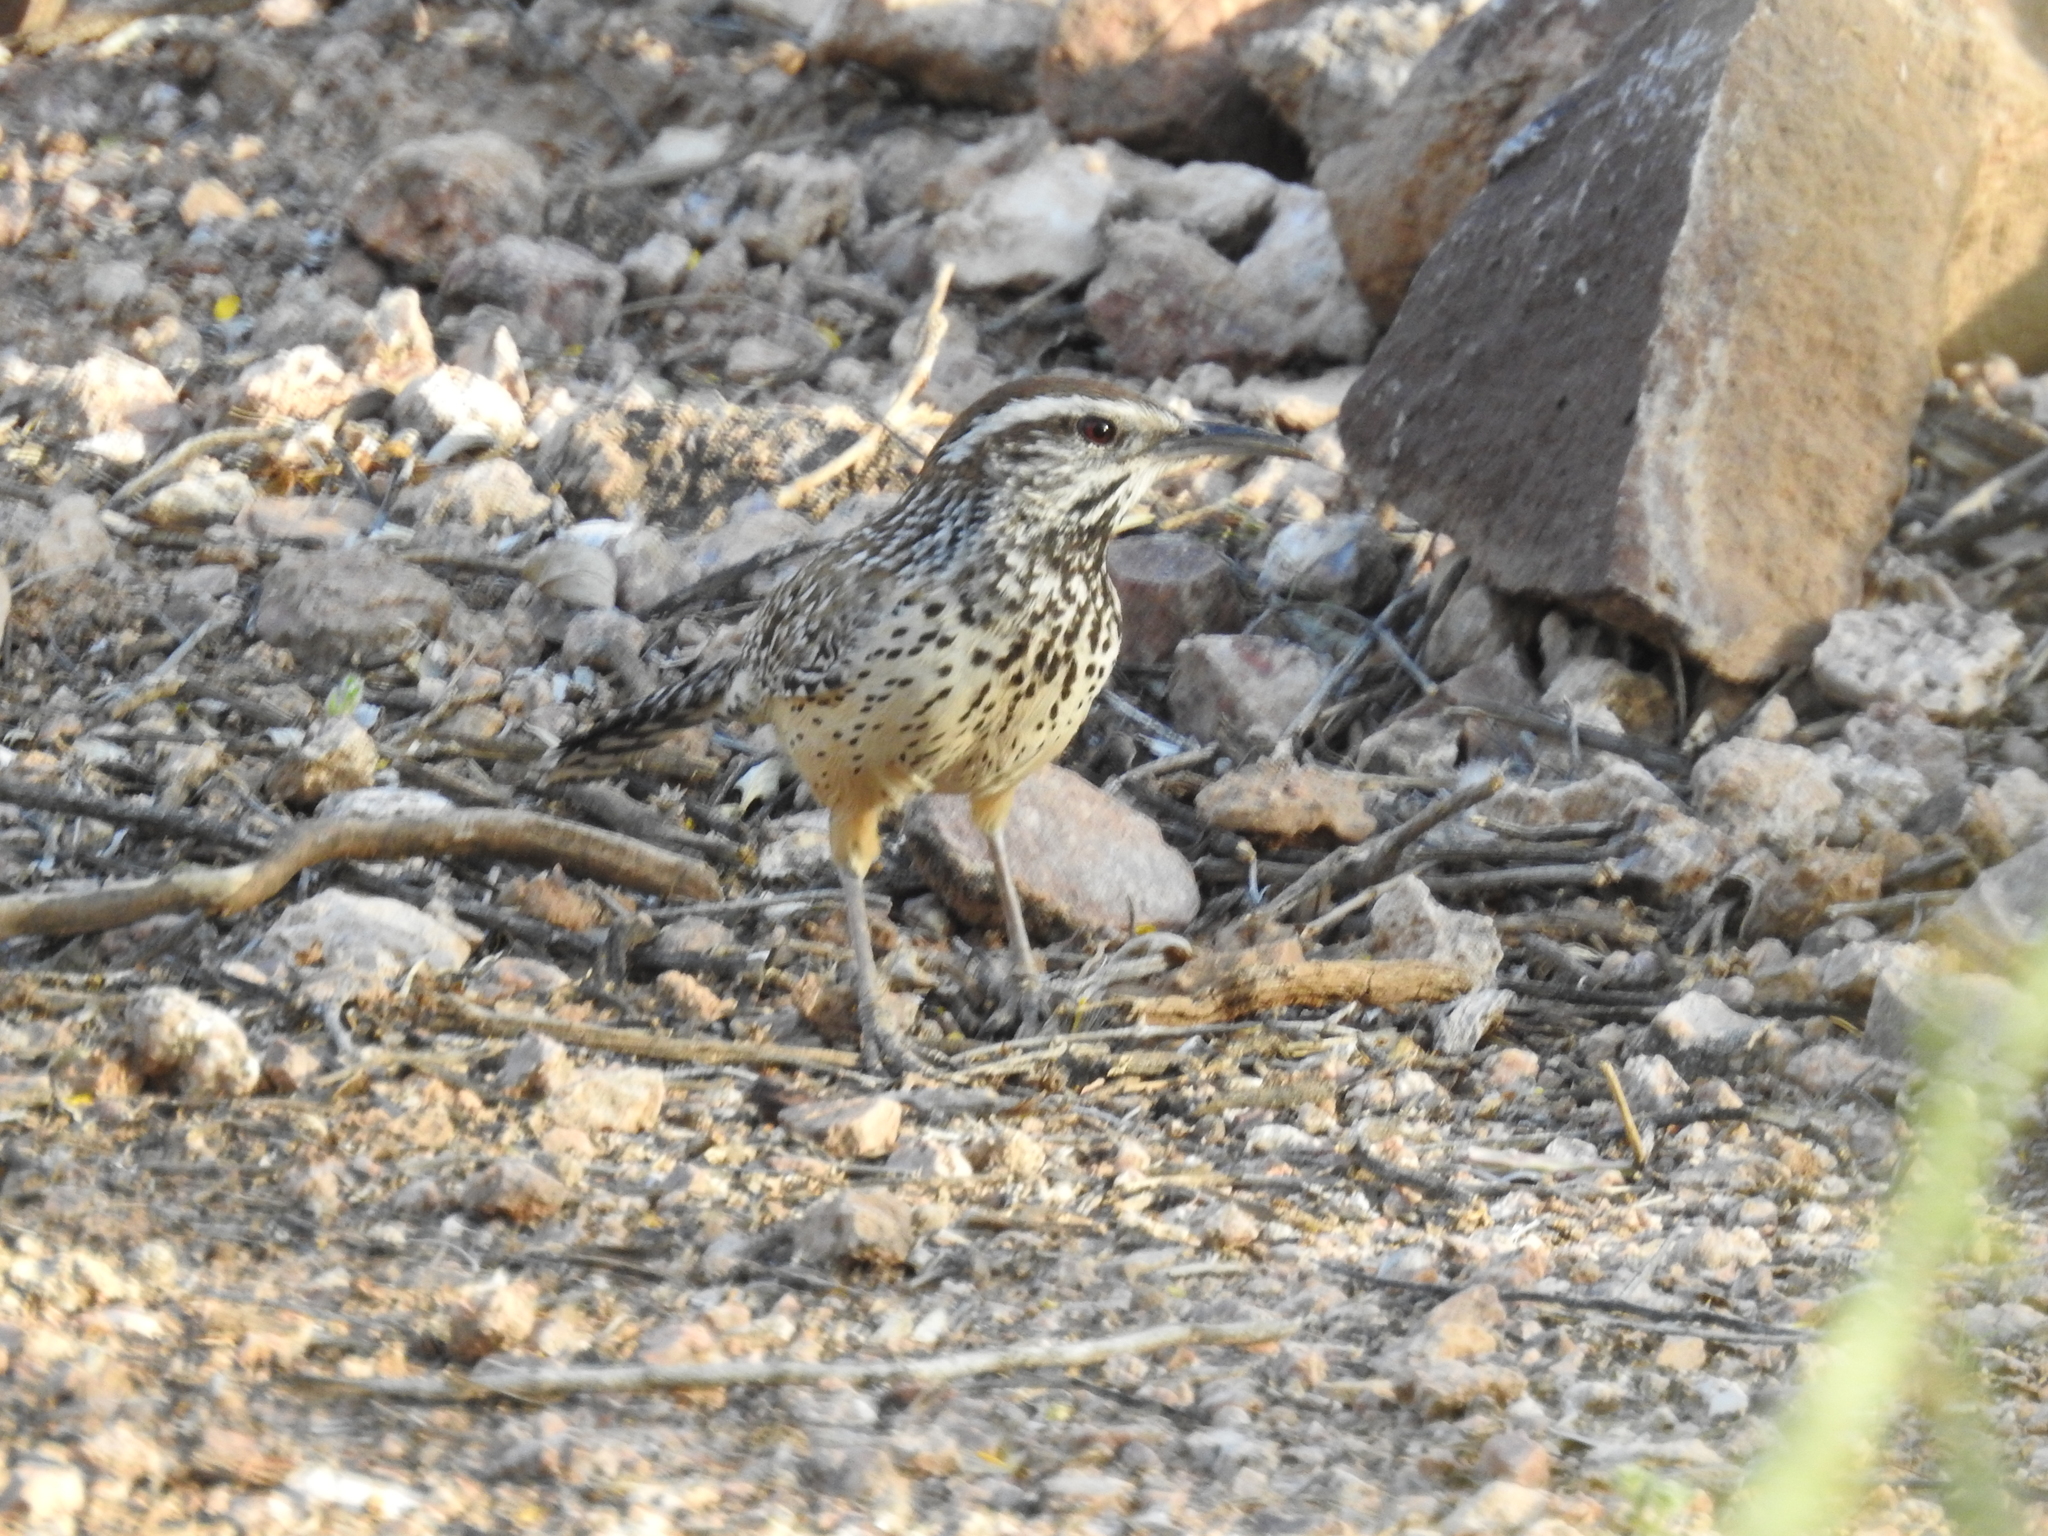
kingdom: Animalia
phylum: Chordata
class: Aves
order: Passeriformes
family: Troglodytidae
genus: Campylorhynchus
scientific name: Campylorhynchus brunneicapillus
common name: Cactus wren
